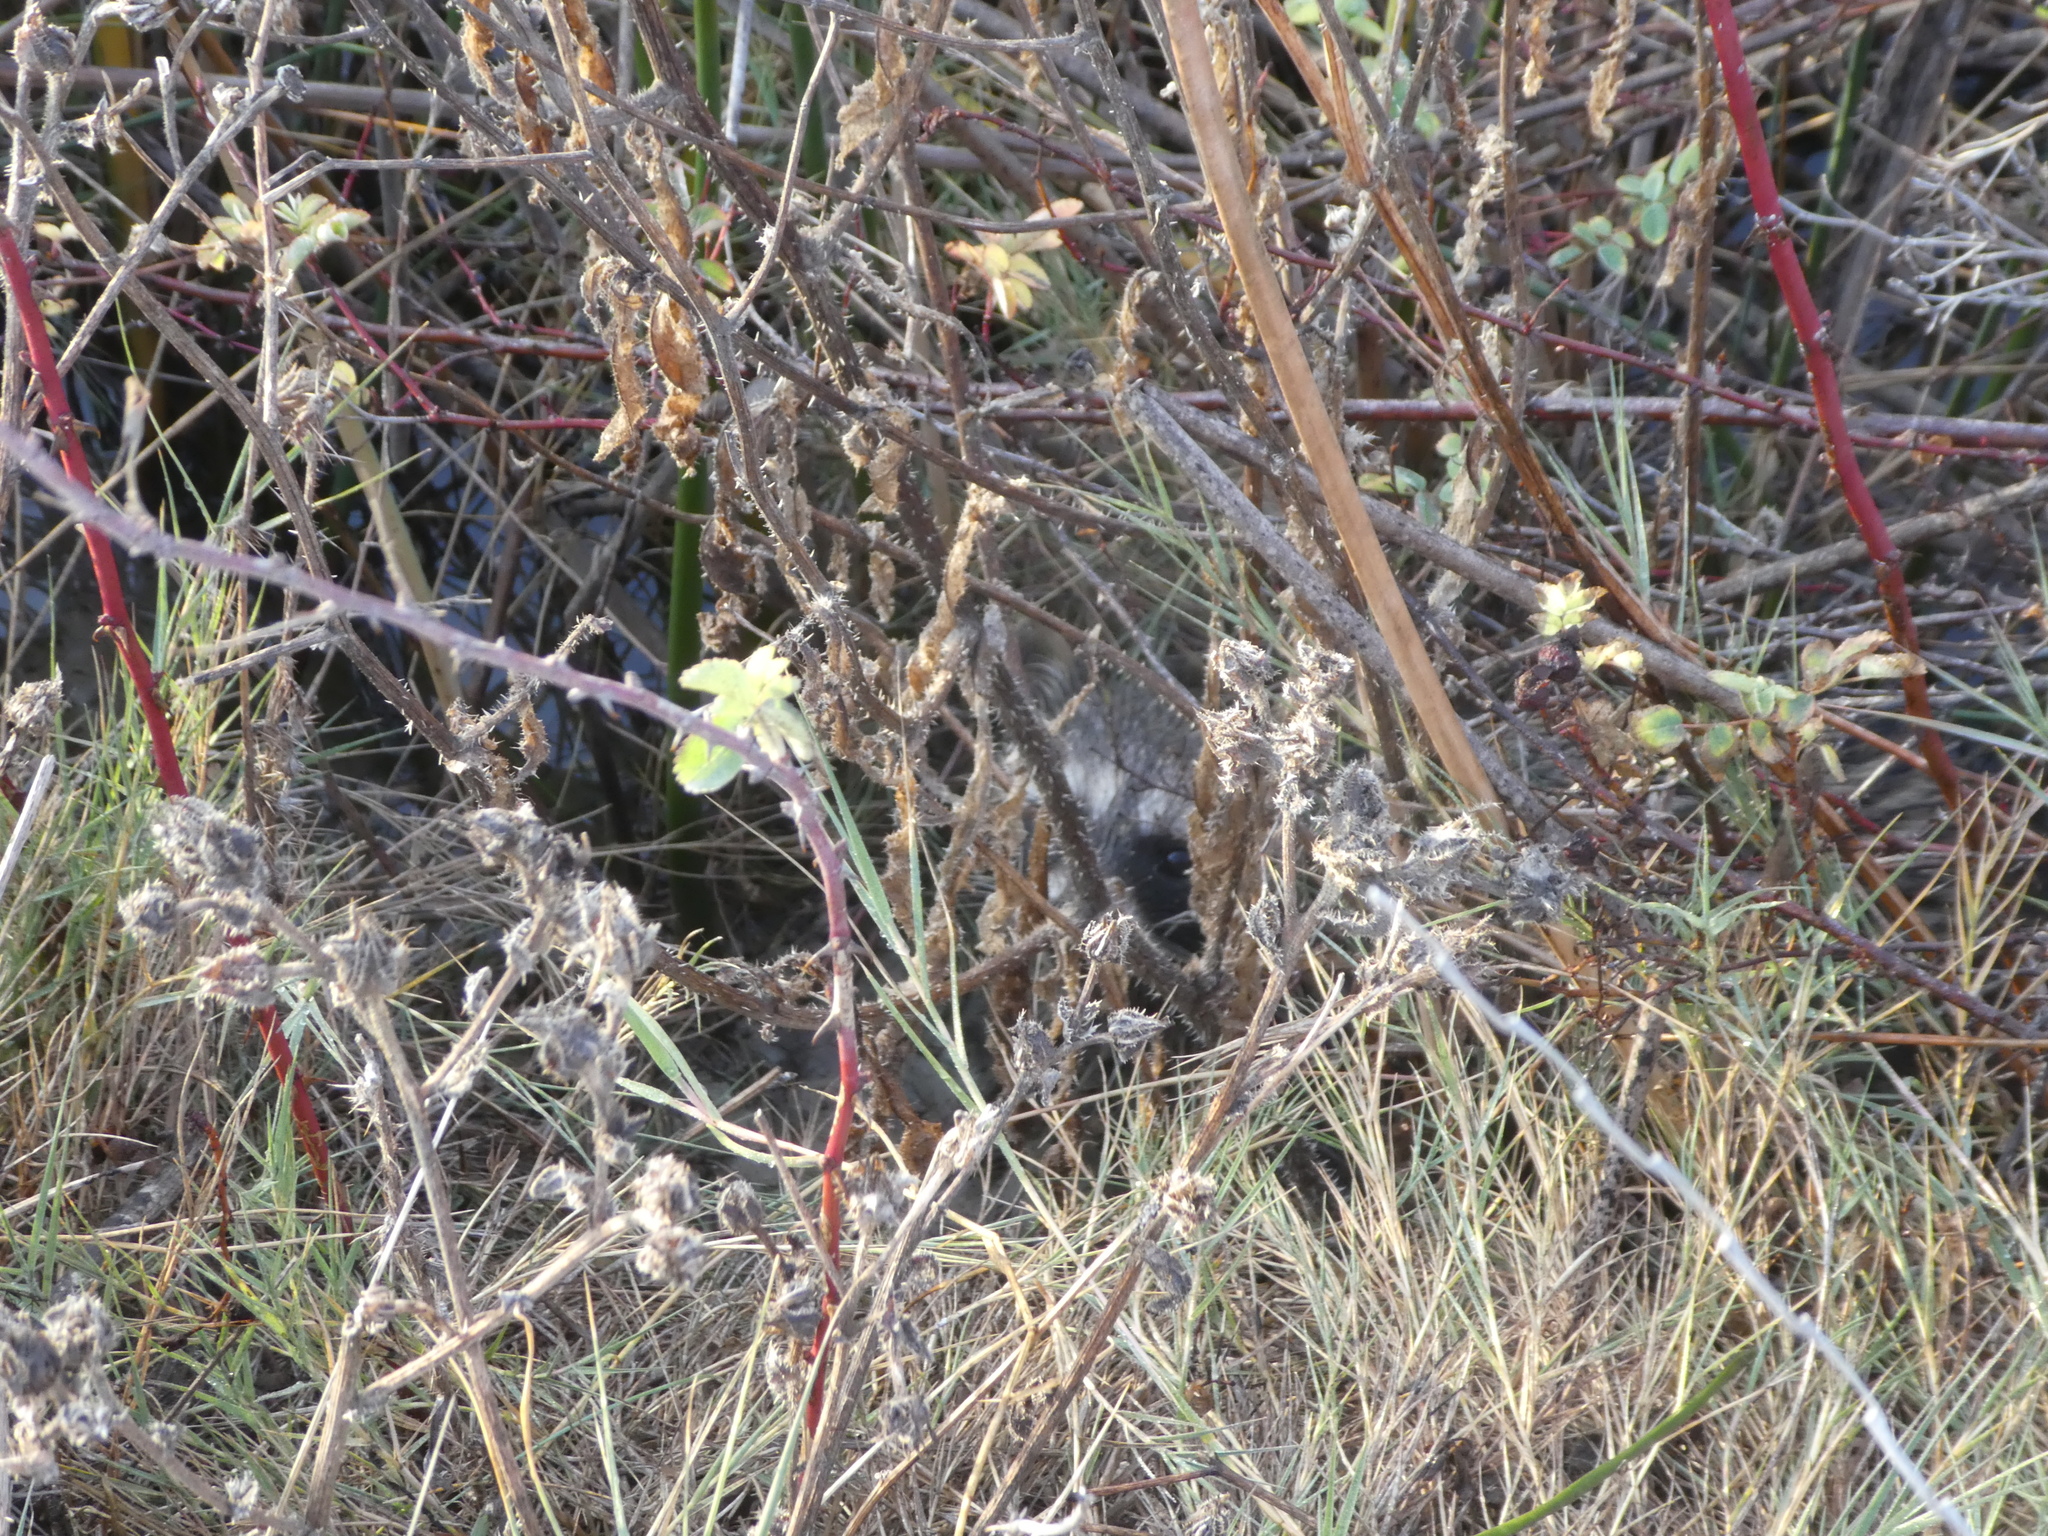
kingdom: Animalia
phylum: Chordata
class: Mammalia
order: Carnivora
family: Procyonidae
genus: Procyon
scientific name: Procyon lotor
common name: Raccoon
